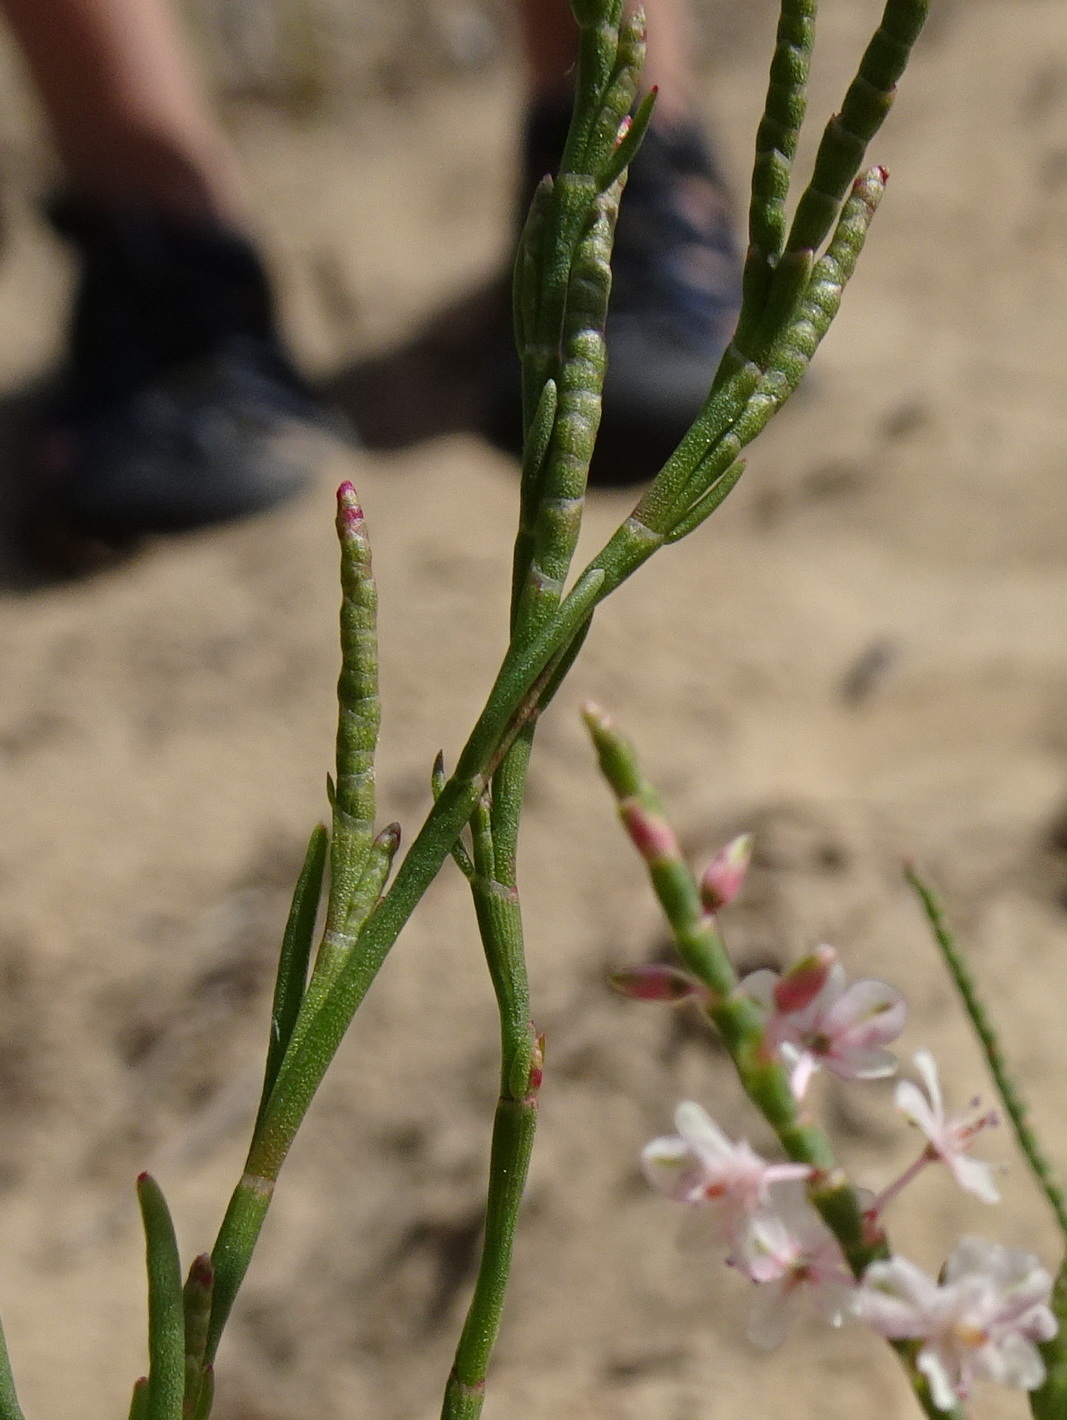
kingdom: Plantae
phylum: Tracheophyta
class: Magnoliopsida
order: Caryophyllales
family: Polygonaceae
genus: Polygonella
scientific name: Polygonella articulata
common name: Coastal jointweed
